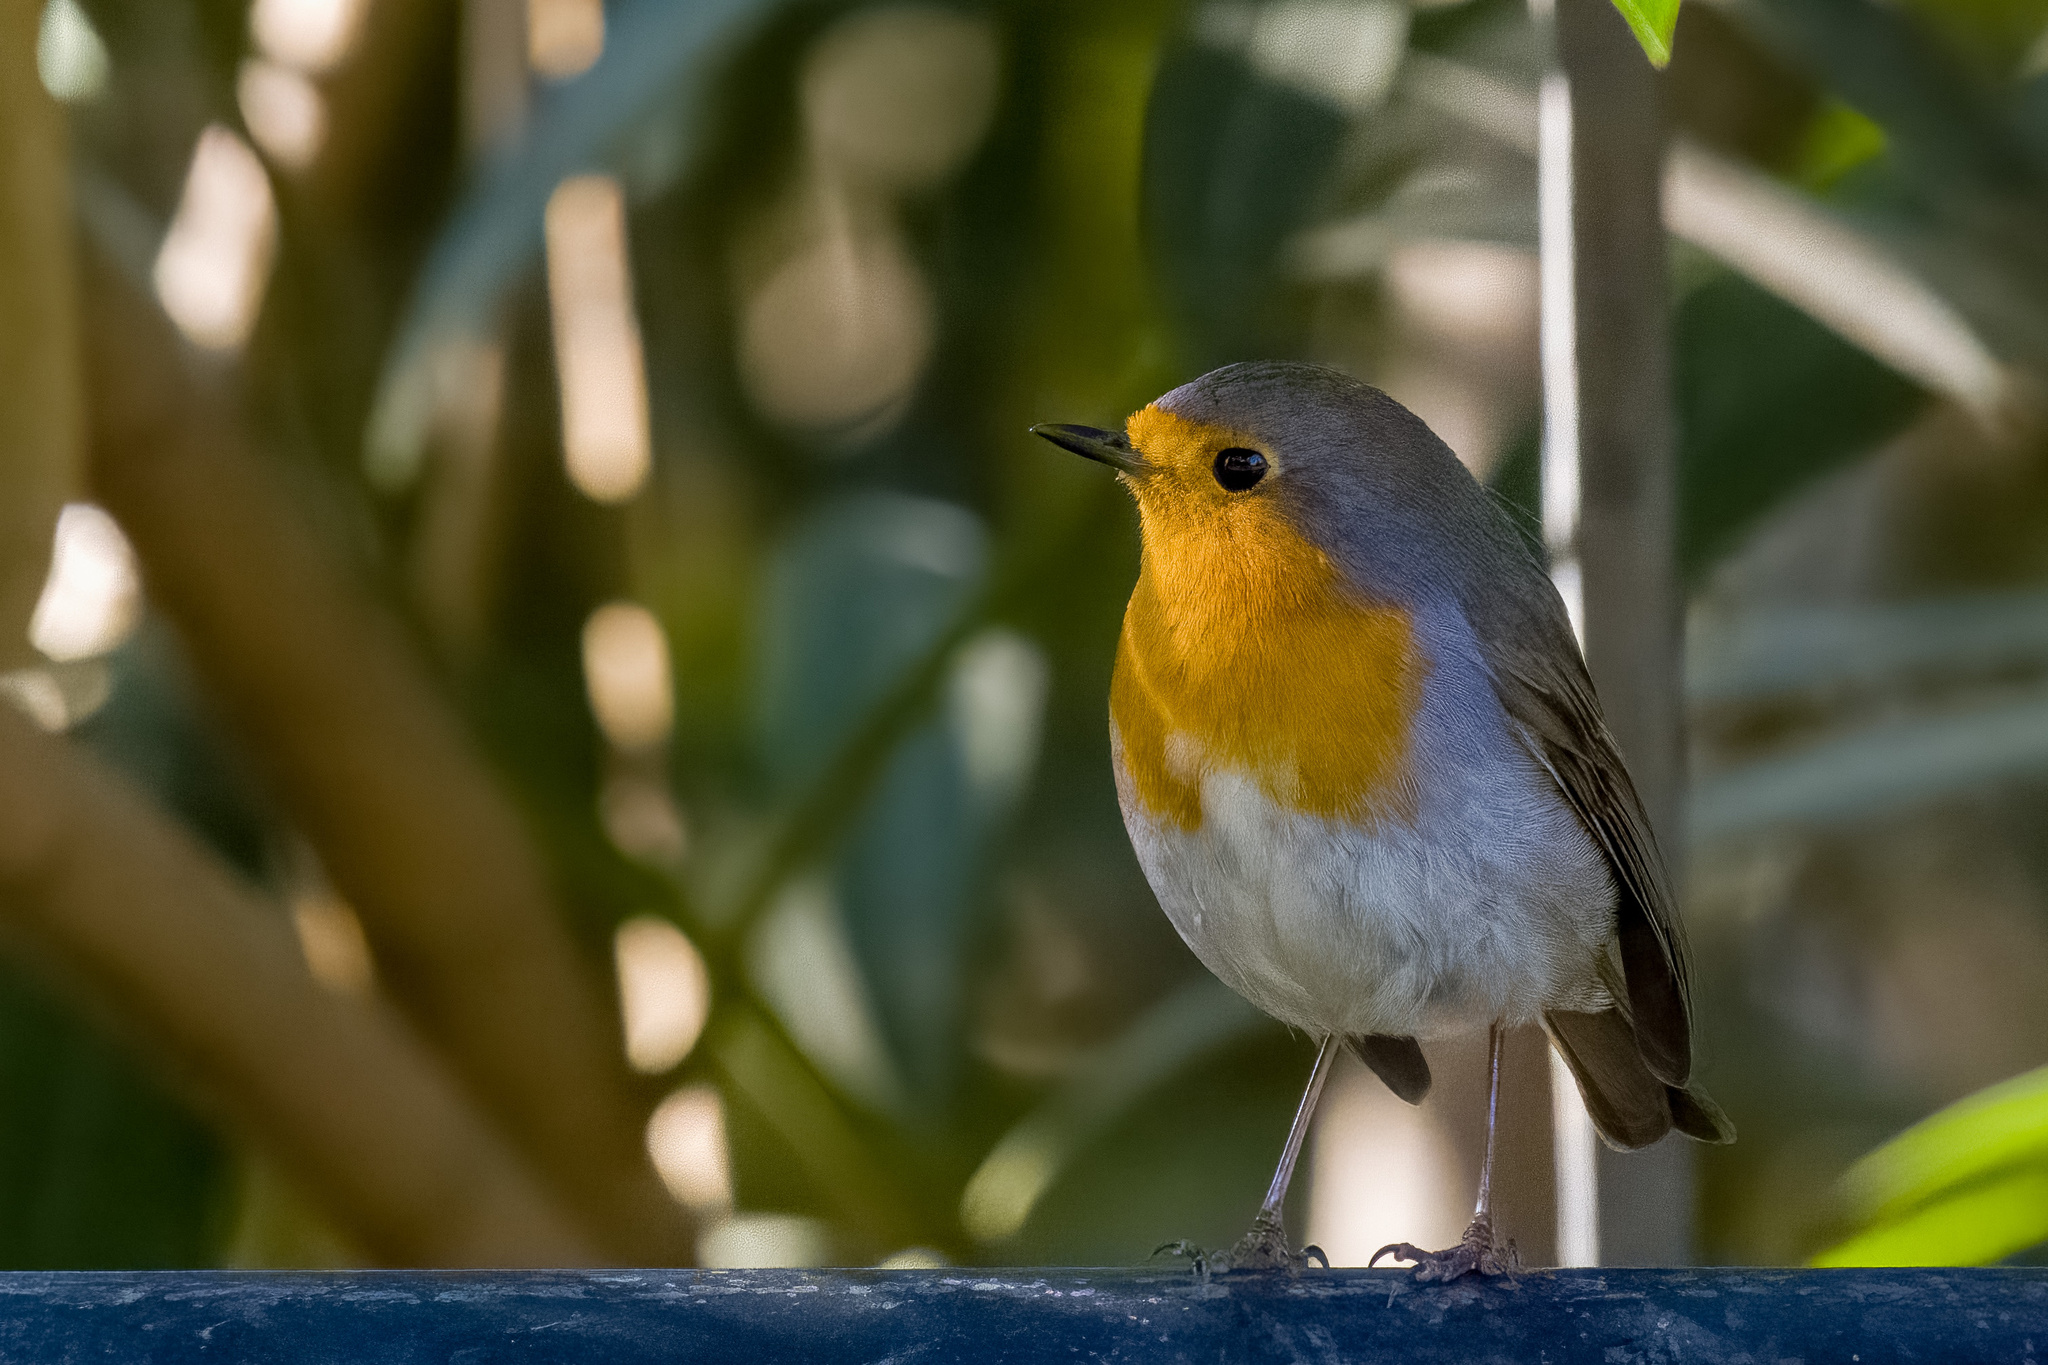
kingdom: Animalia
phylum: Chordata
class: Aves
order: Passeriformes
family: Muscicapidae
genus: Erithacus
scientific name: Erithacus rubecula
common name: European robin
